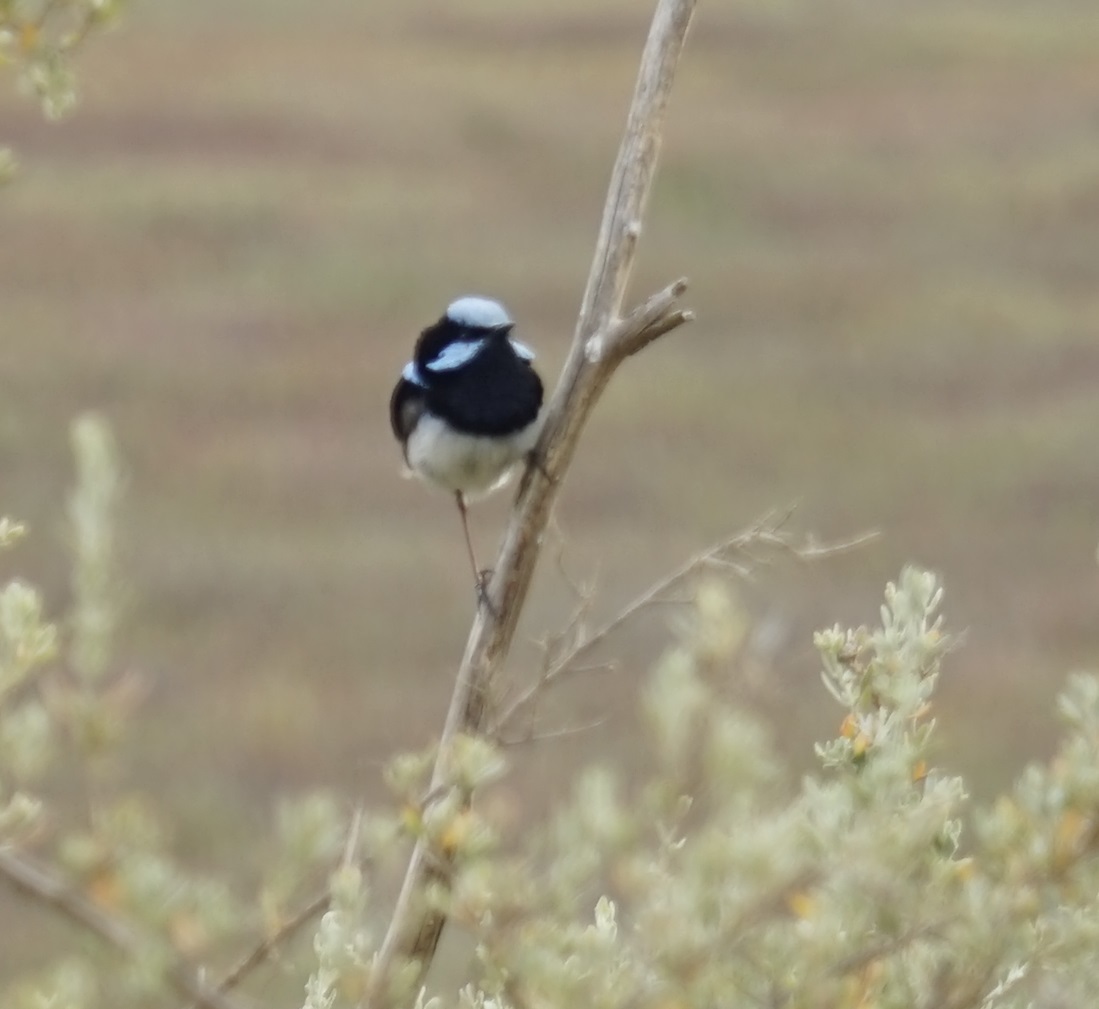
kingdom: Animalia
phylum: Chordata
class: Aves
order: Passeriformes
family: Maluridae
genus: Malurus
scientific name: Malurus cyaneus
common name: Superb fairywren
